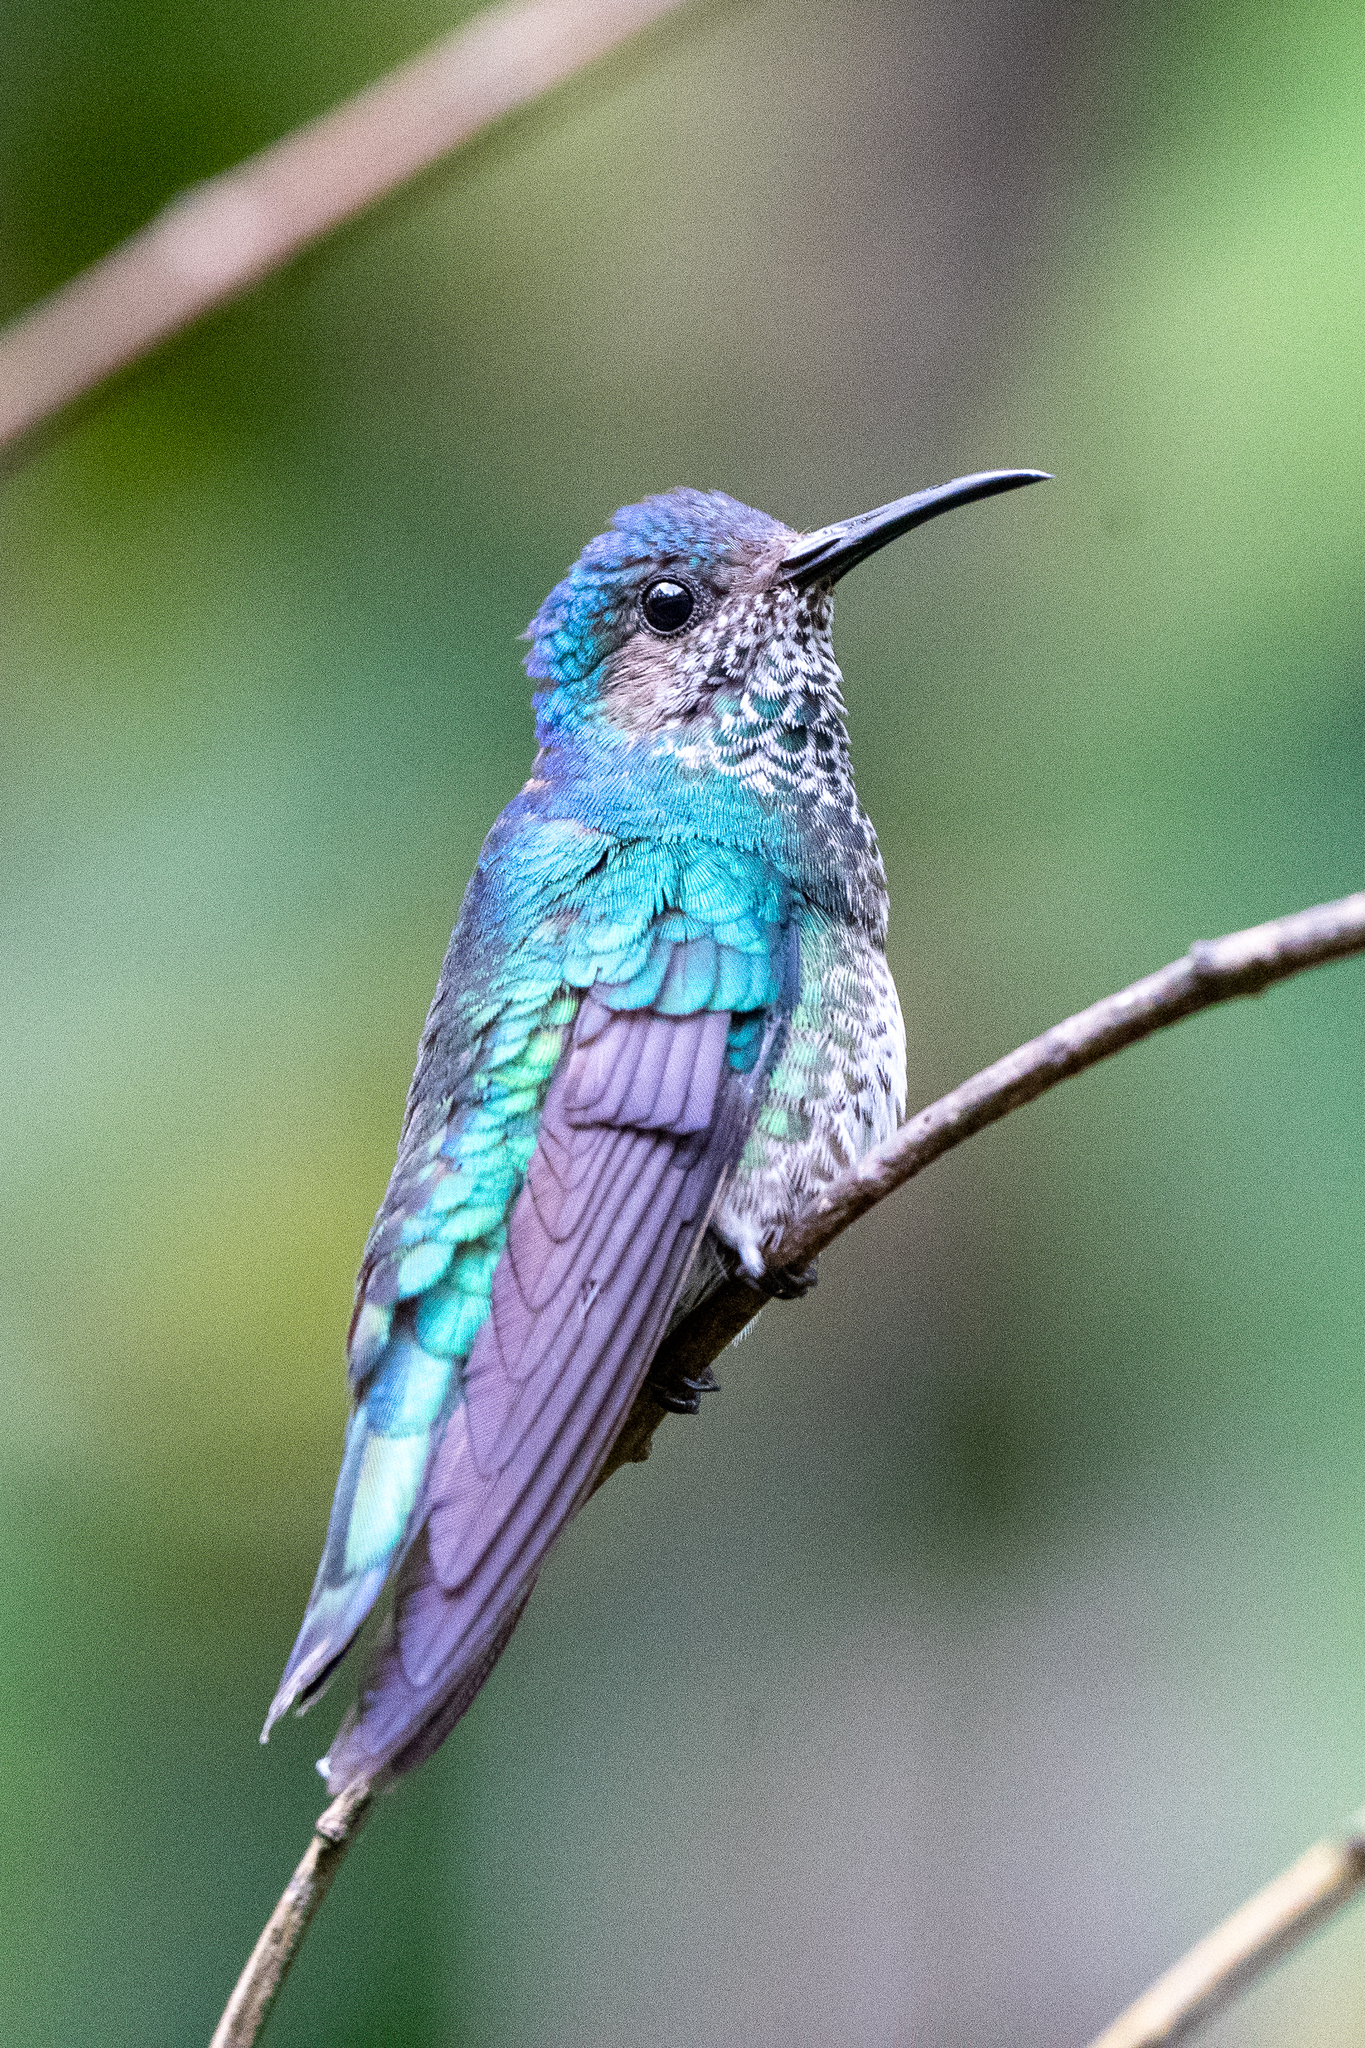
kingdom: Animalia
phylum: Chordata
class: Aves
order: Apodiformes
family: Trochilidae
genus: Florisuga
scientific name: Florisuga mellivora
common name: White-necked jacobin
